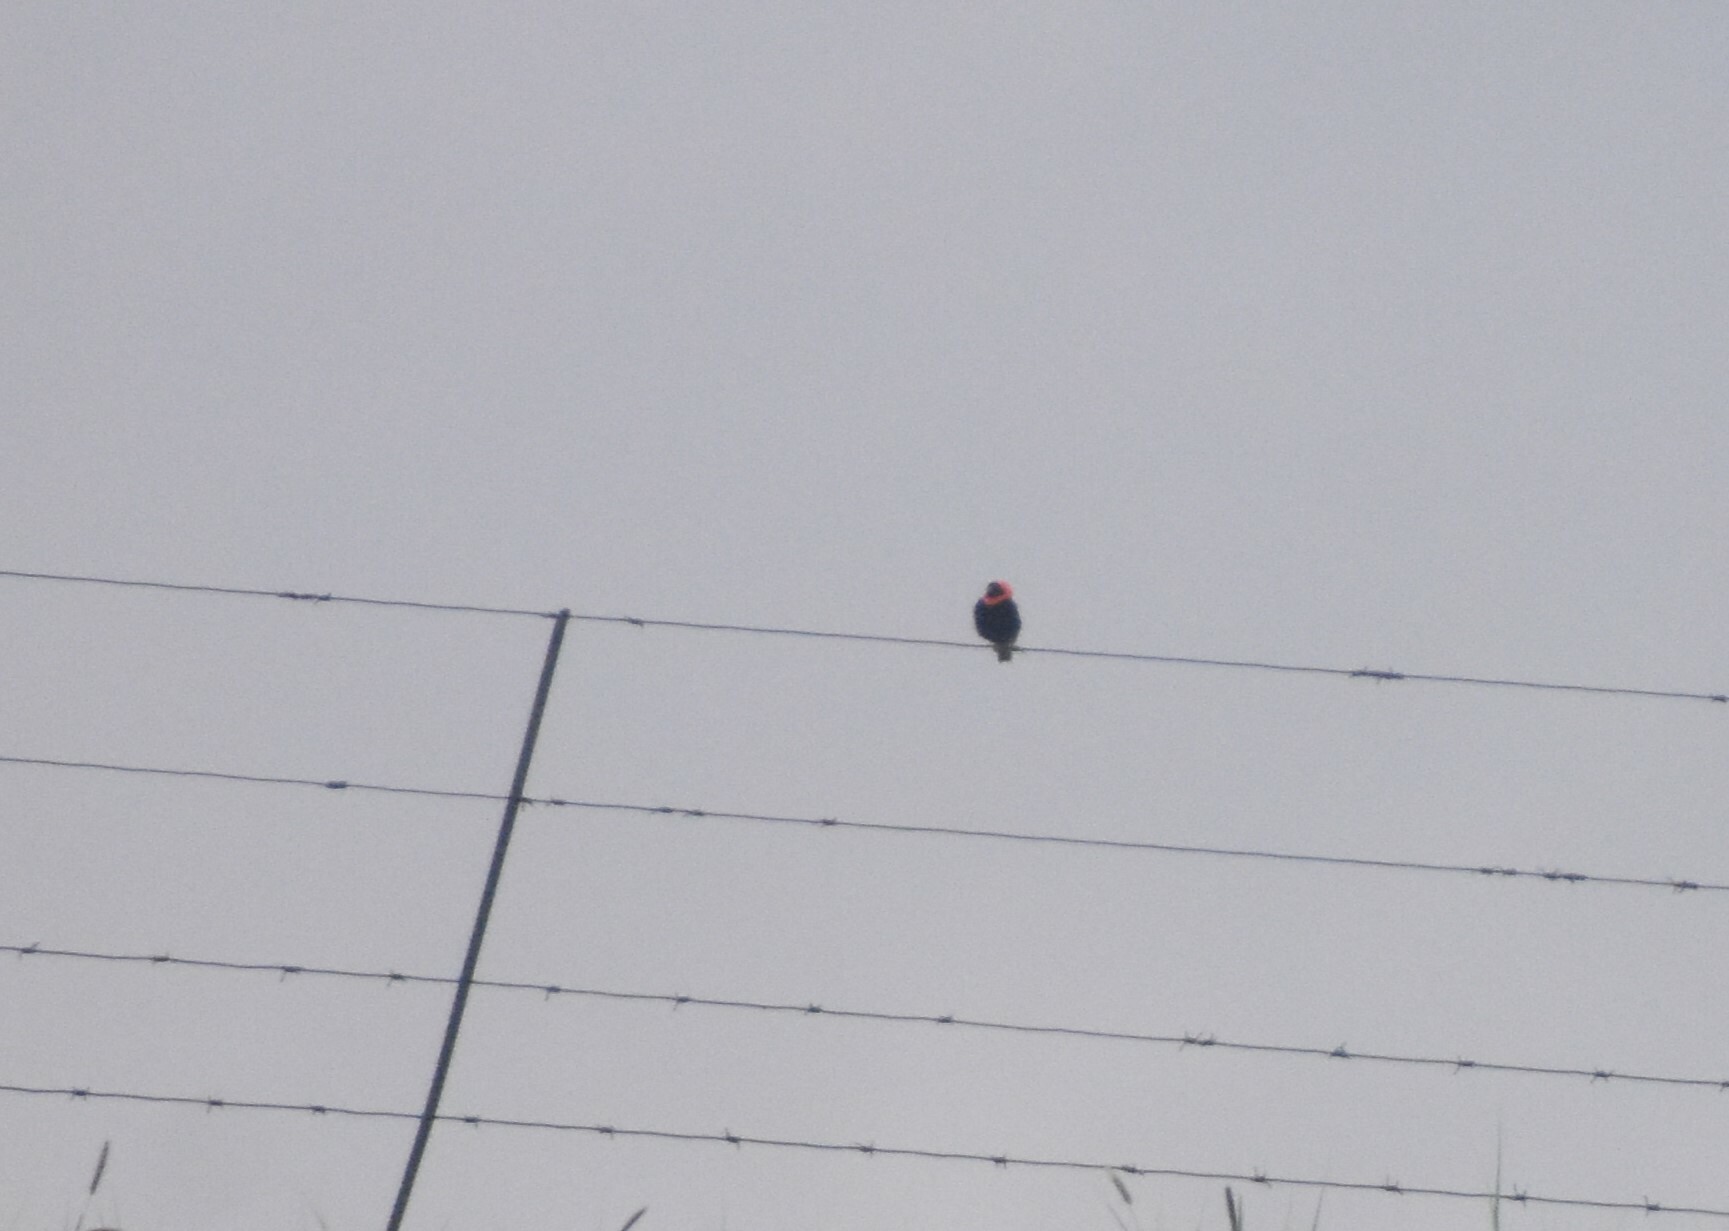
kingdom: Animalia
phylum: Chordata
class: Aves
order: Passeriformes
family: Ploceidae
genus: Euplectes
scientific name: Euplectes orix
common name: Southern red bishop
